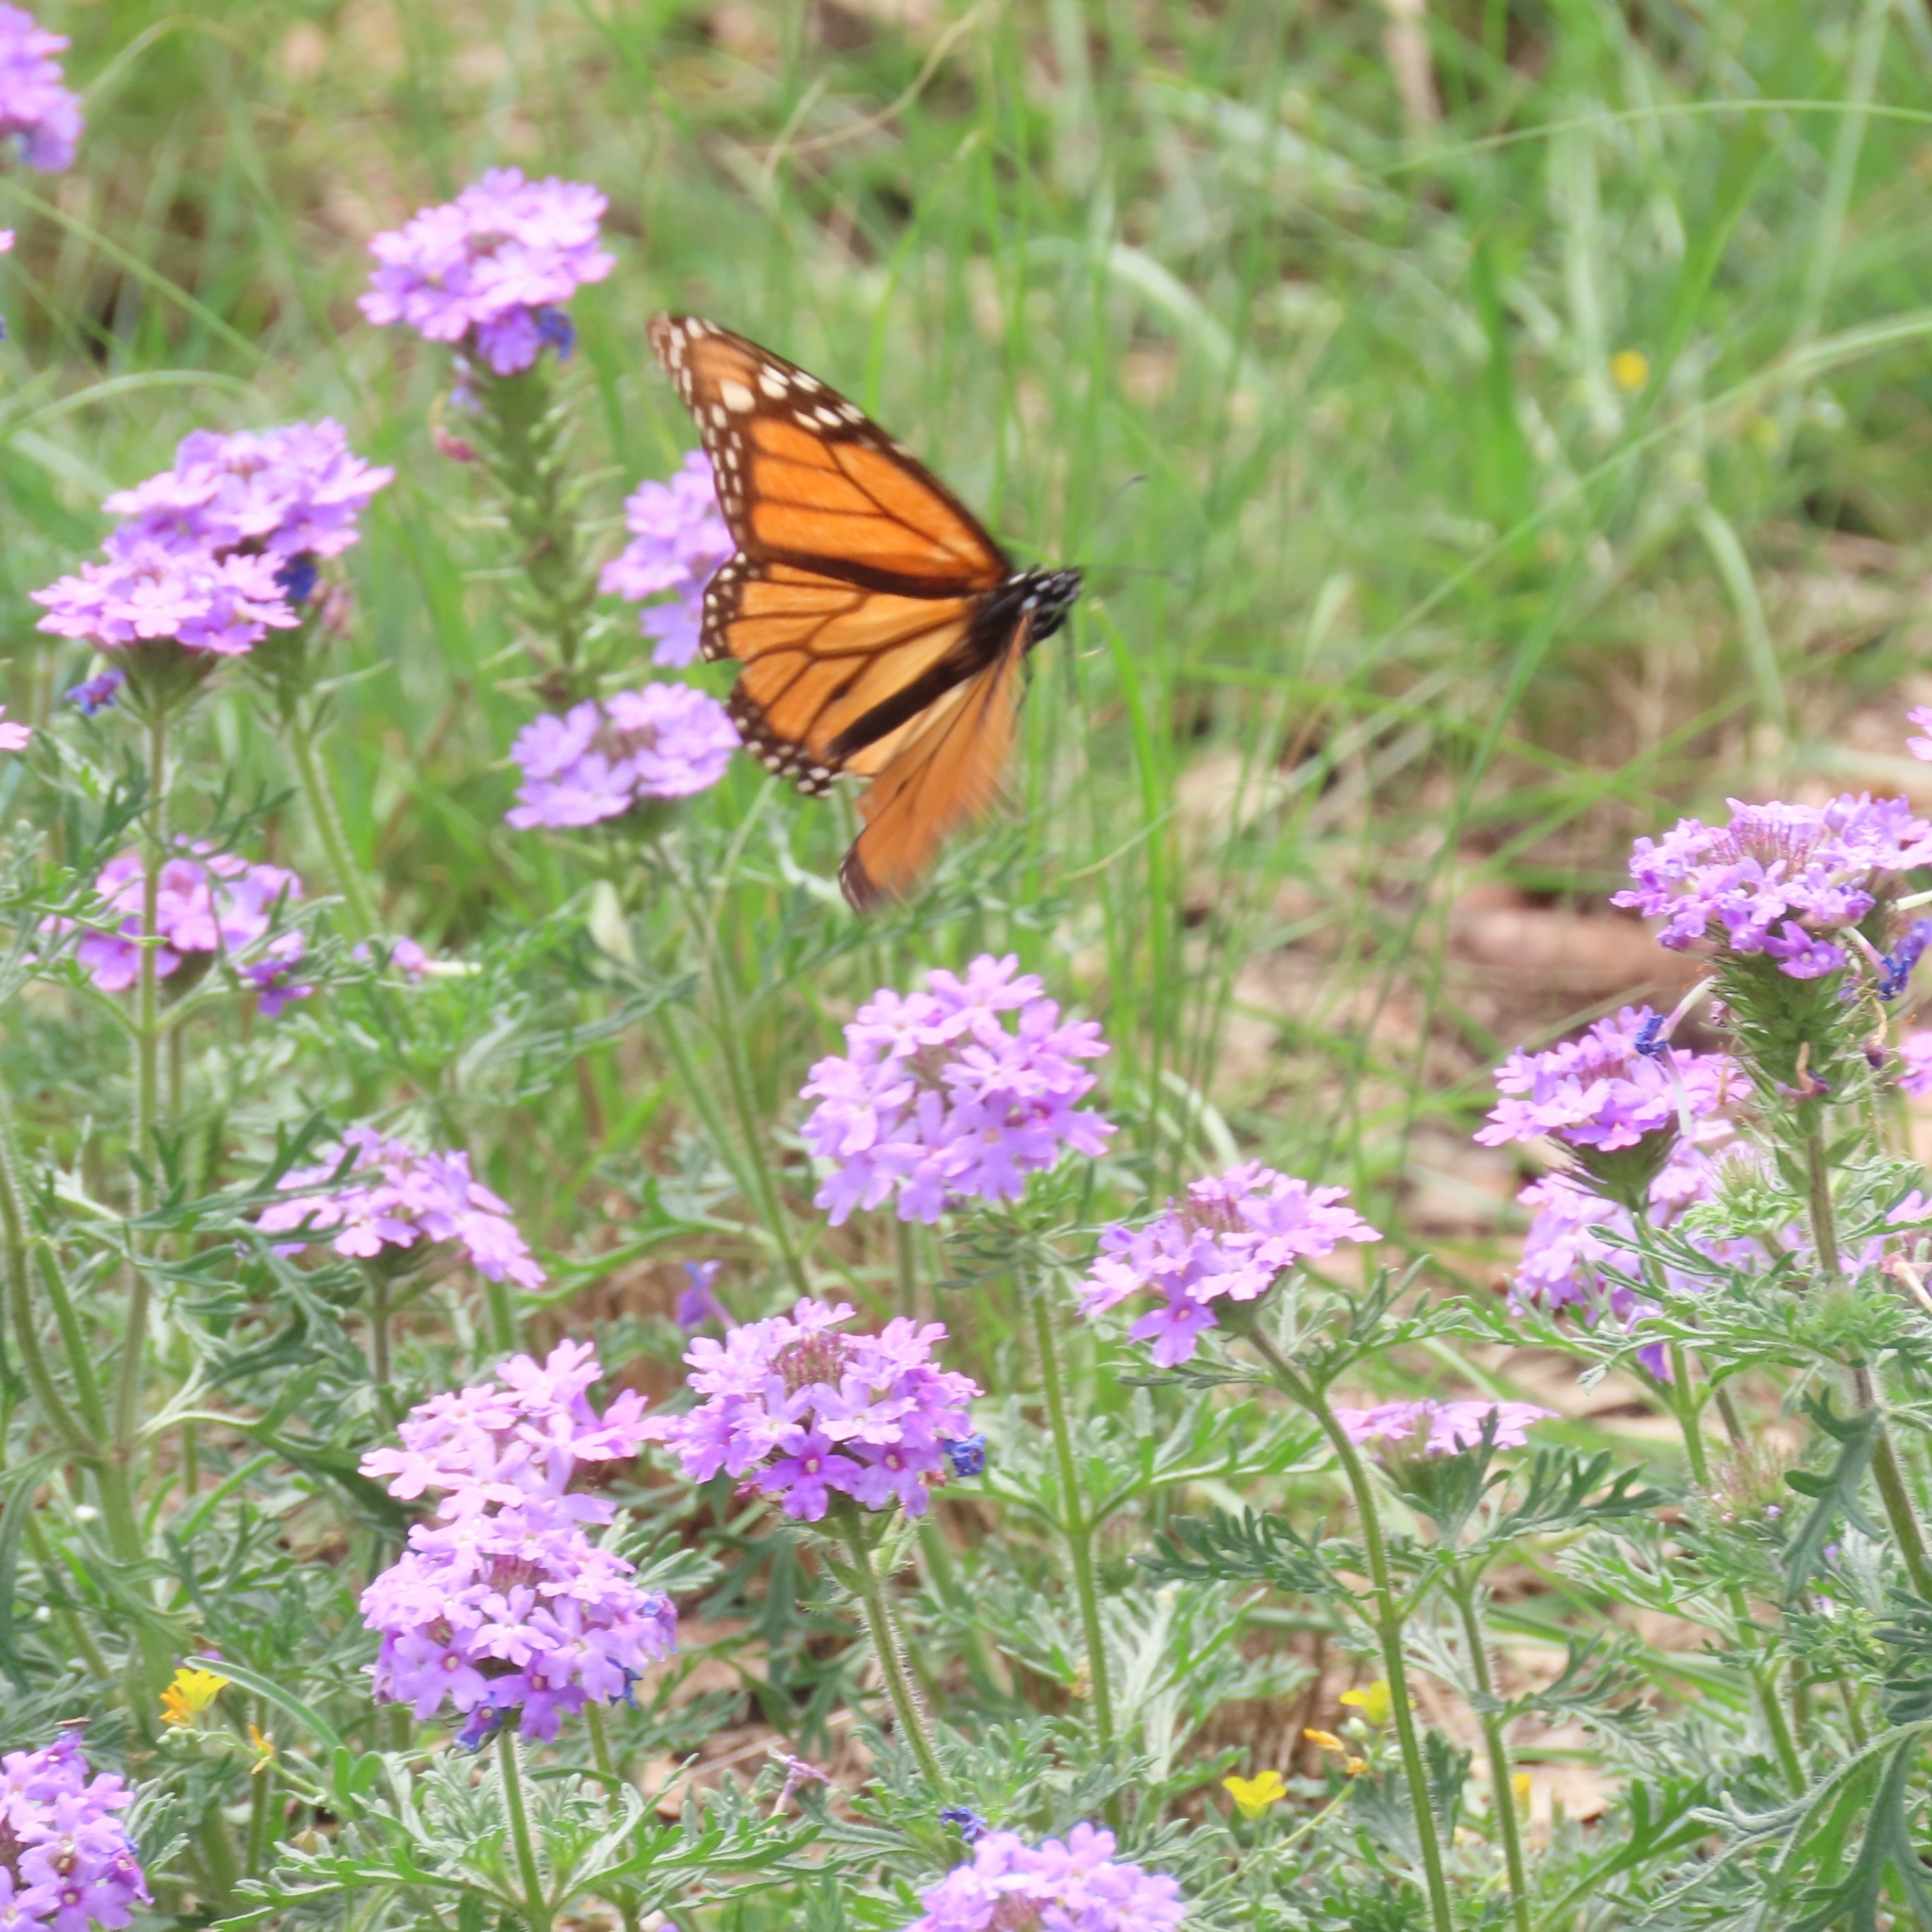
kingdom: Animalia
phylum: Arthropoda
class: Insecta
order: Lepidoptera
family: Nymphalidae
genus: Danaus
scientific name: Danaus plexippus
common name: Monarch
